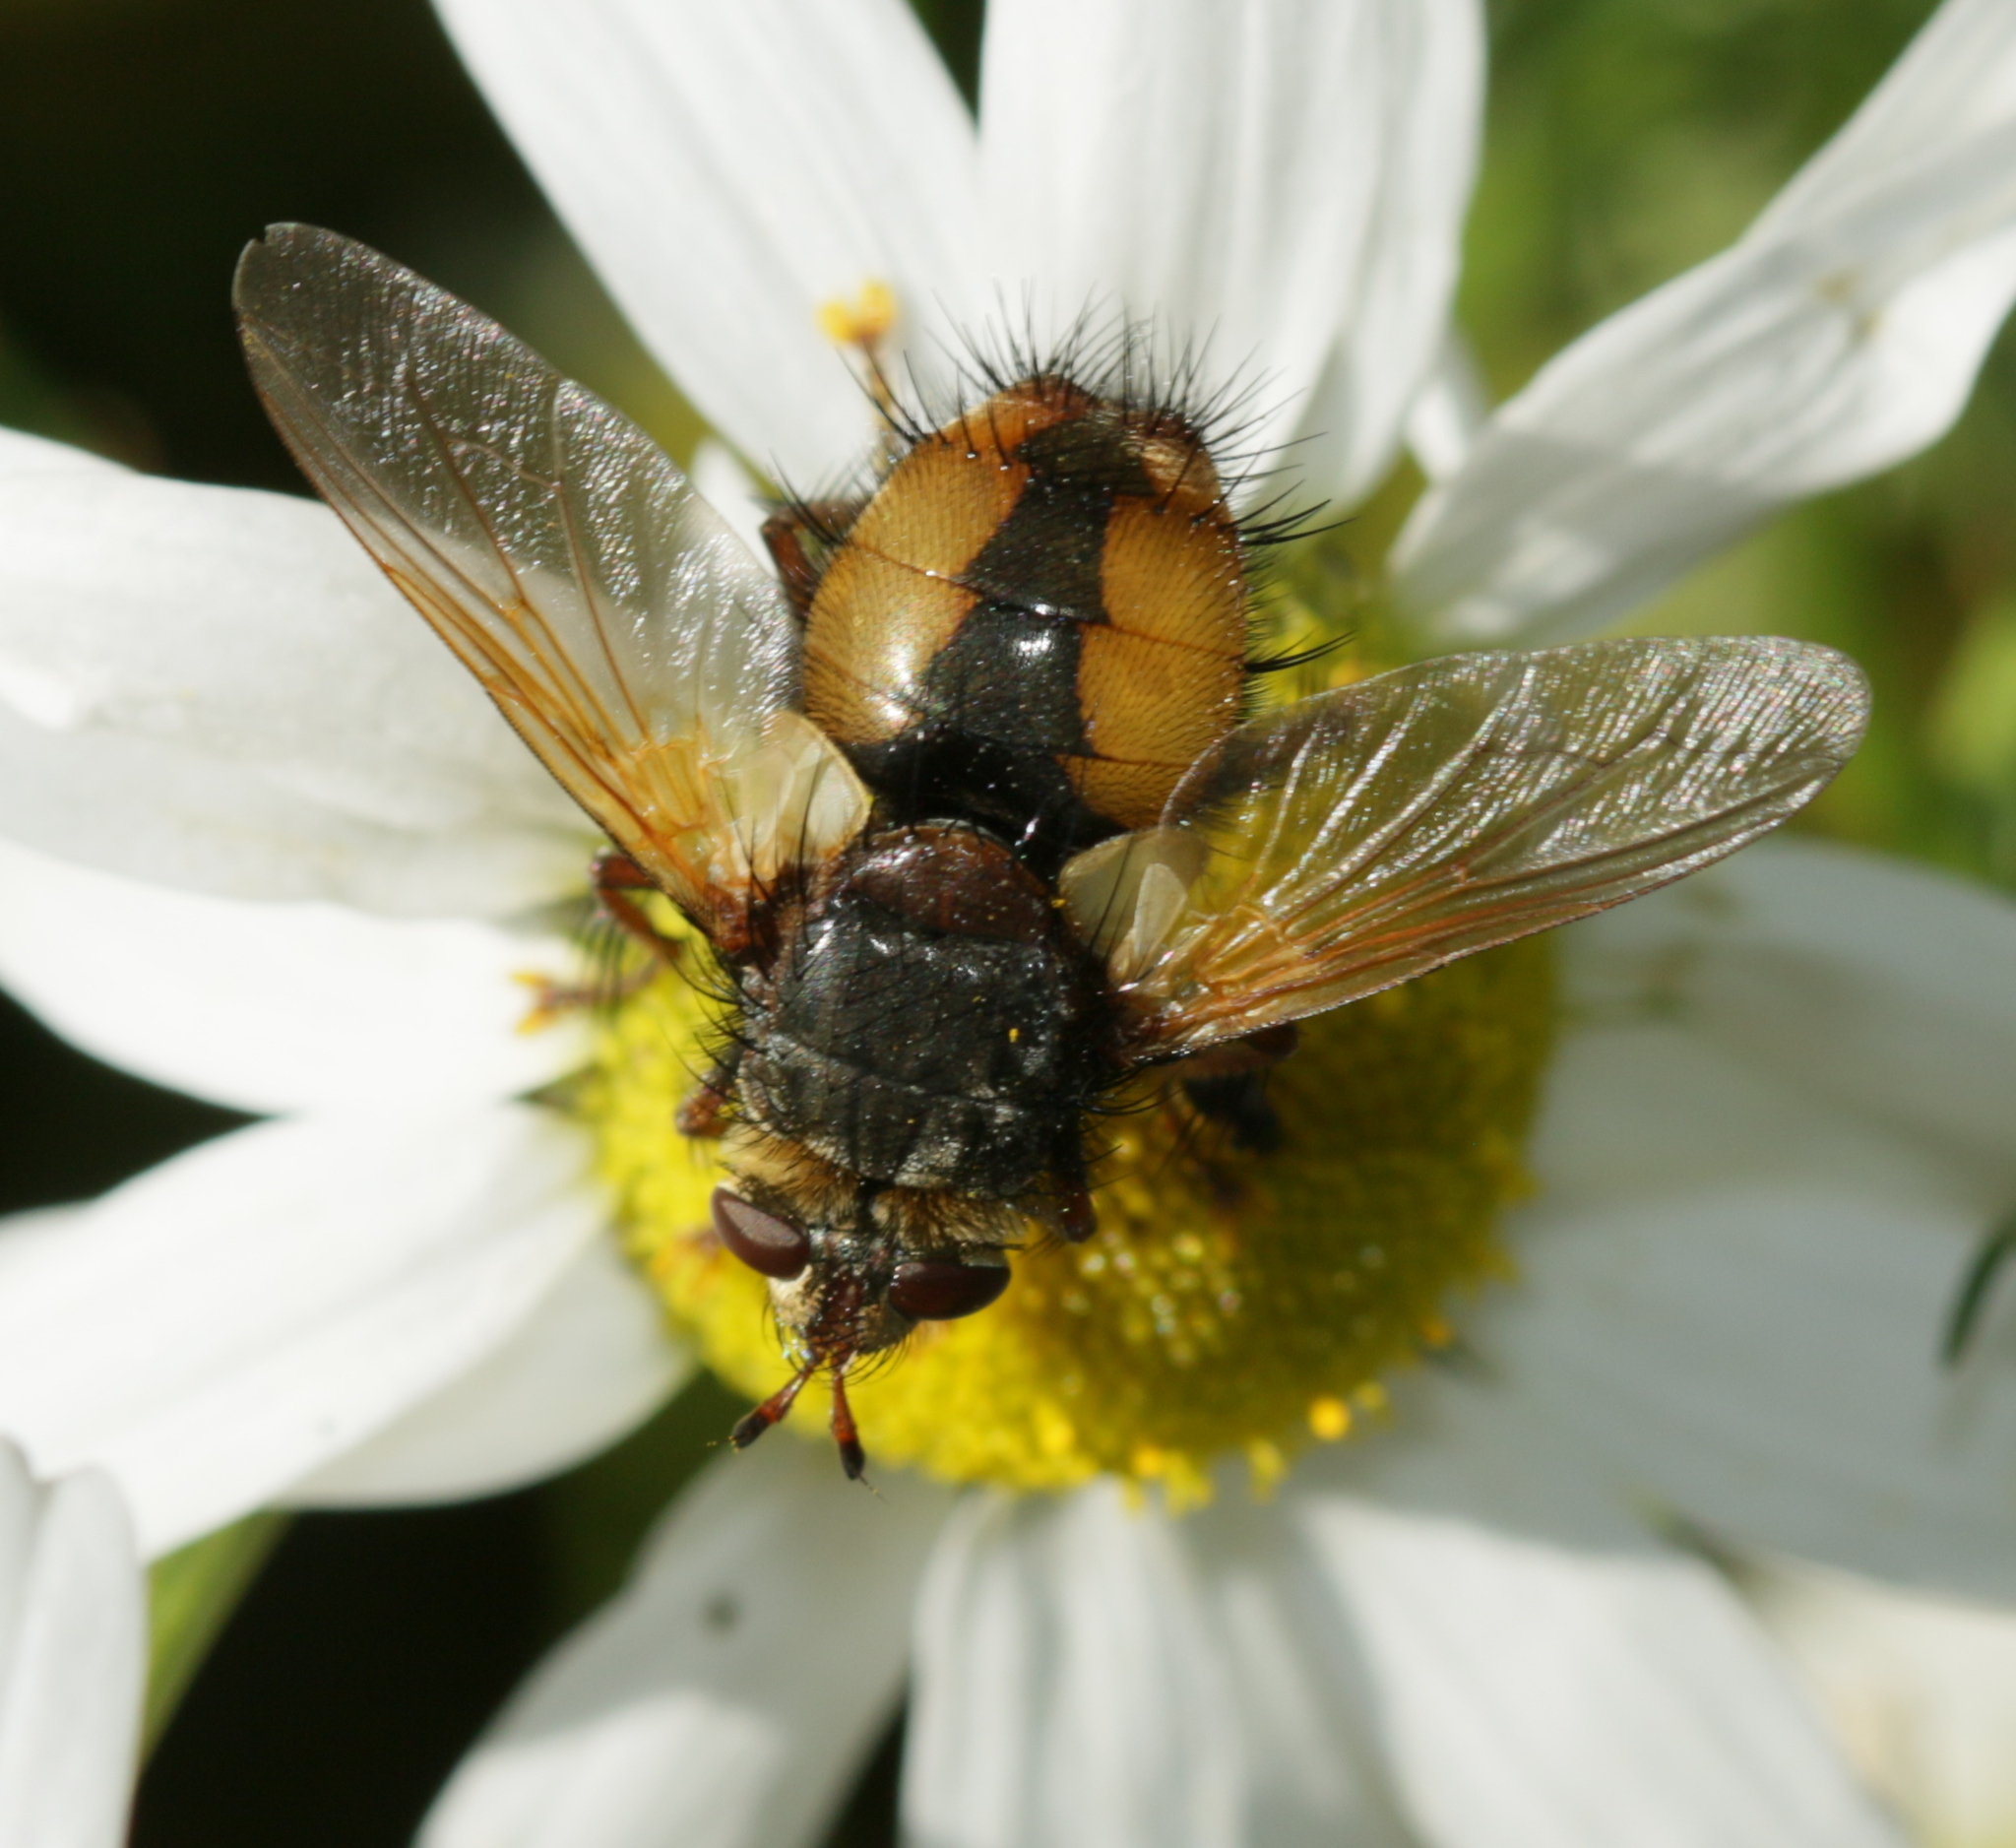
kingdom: Animalia
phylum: Arthropoda
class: Insecta
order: Diptera
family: Tachinidae
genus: Tachina
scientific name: Tachina fera
